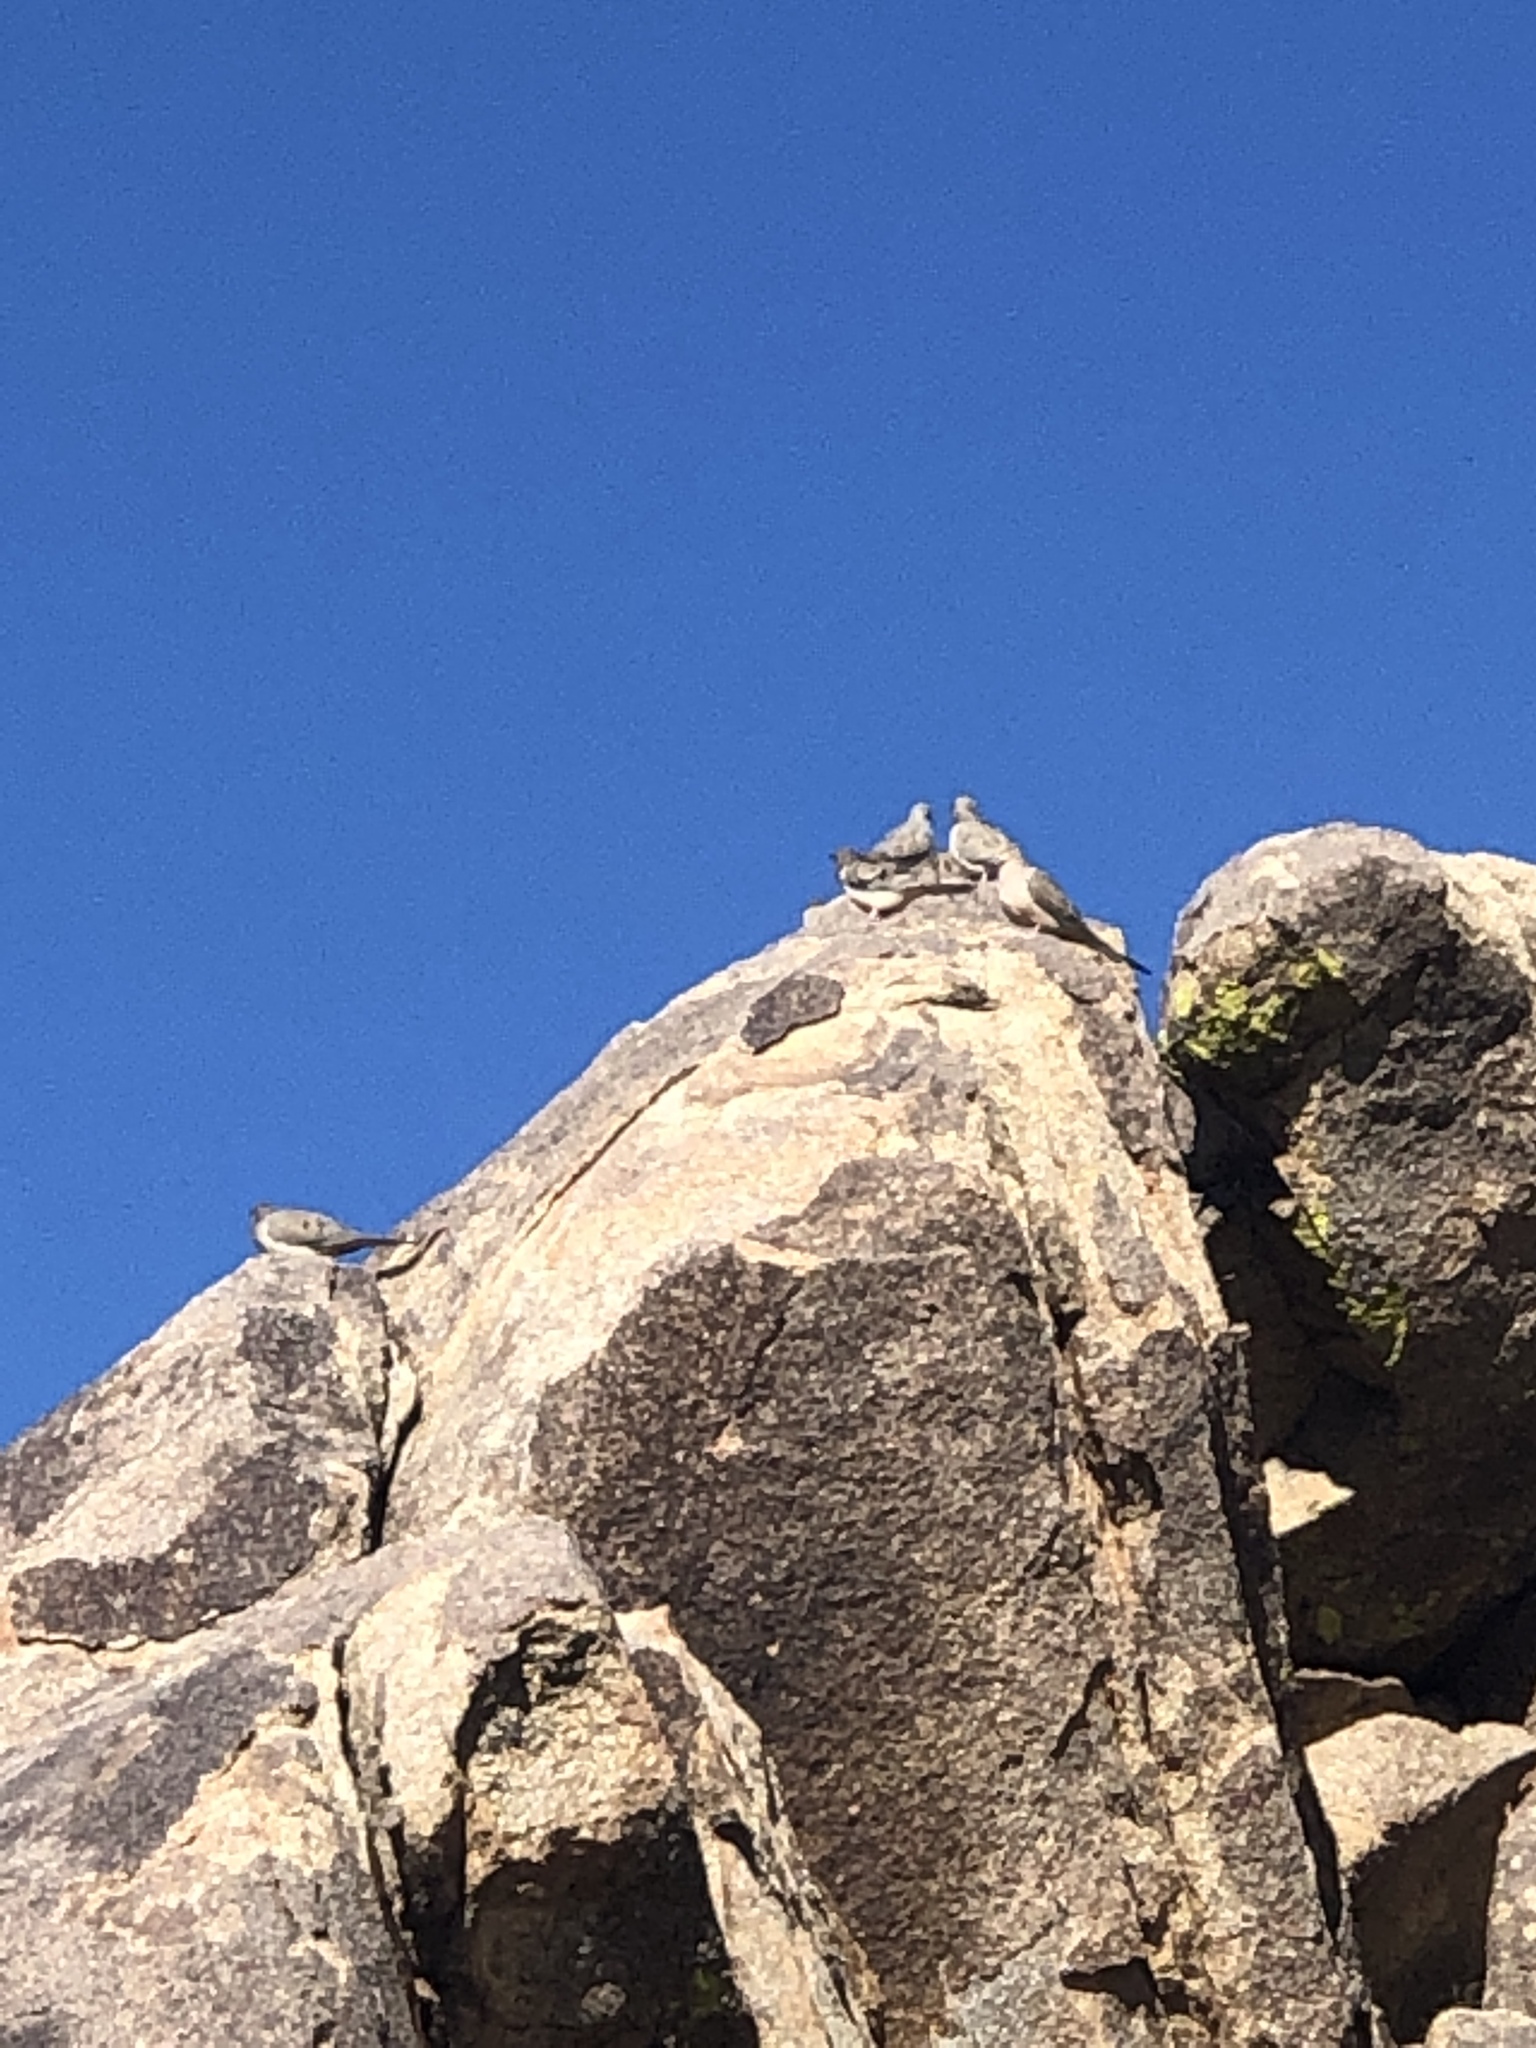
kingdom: Animalia
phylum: Chordata
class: Aves
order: Columbiformes
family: Columbidae
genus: Zenaida
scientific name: Zenaida macroura
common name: Mourning dove
